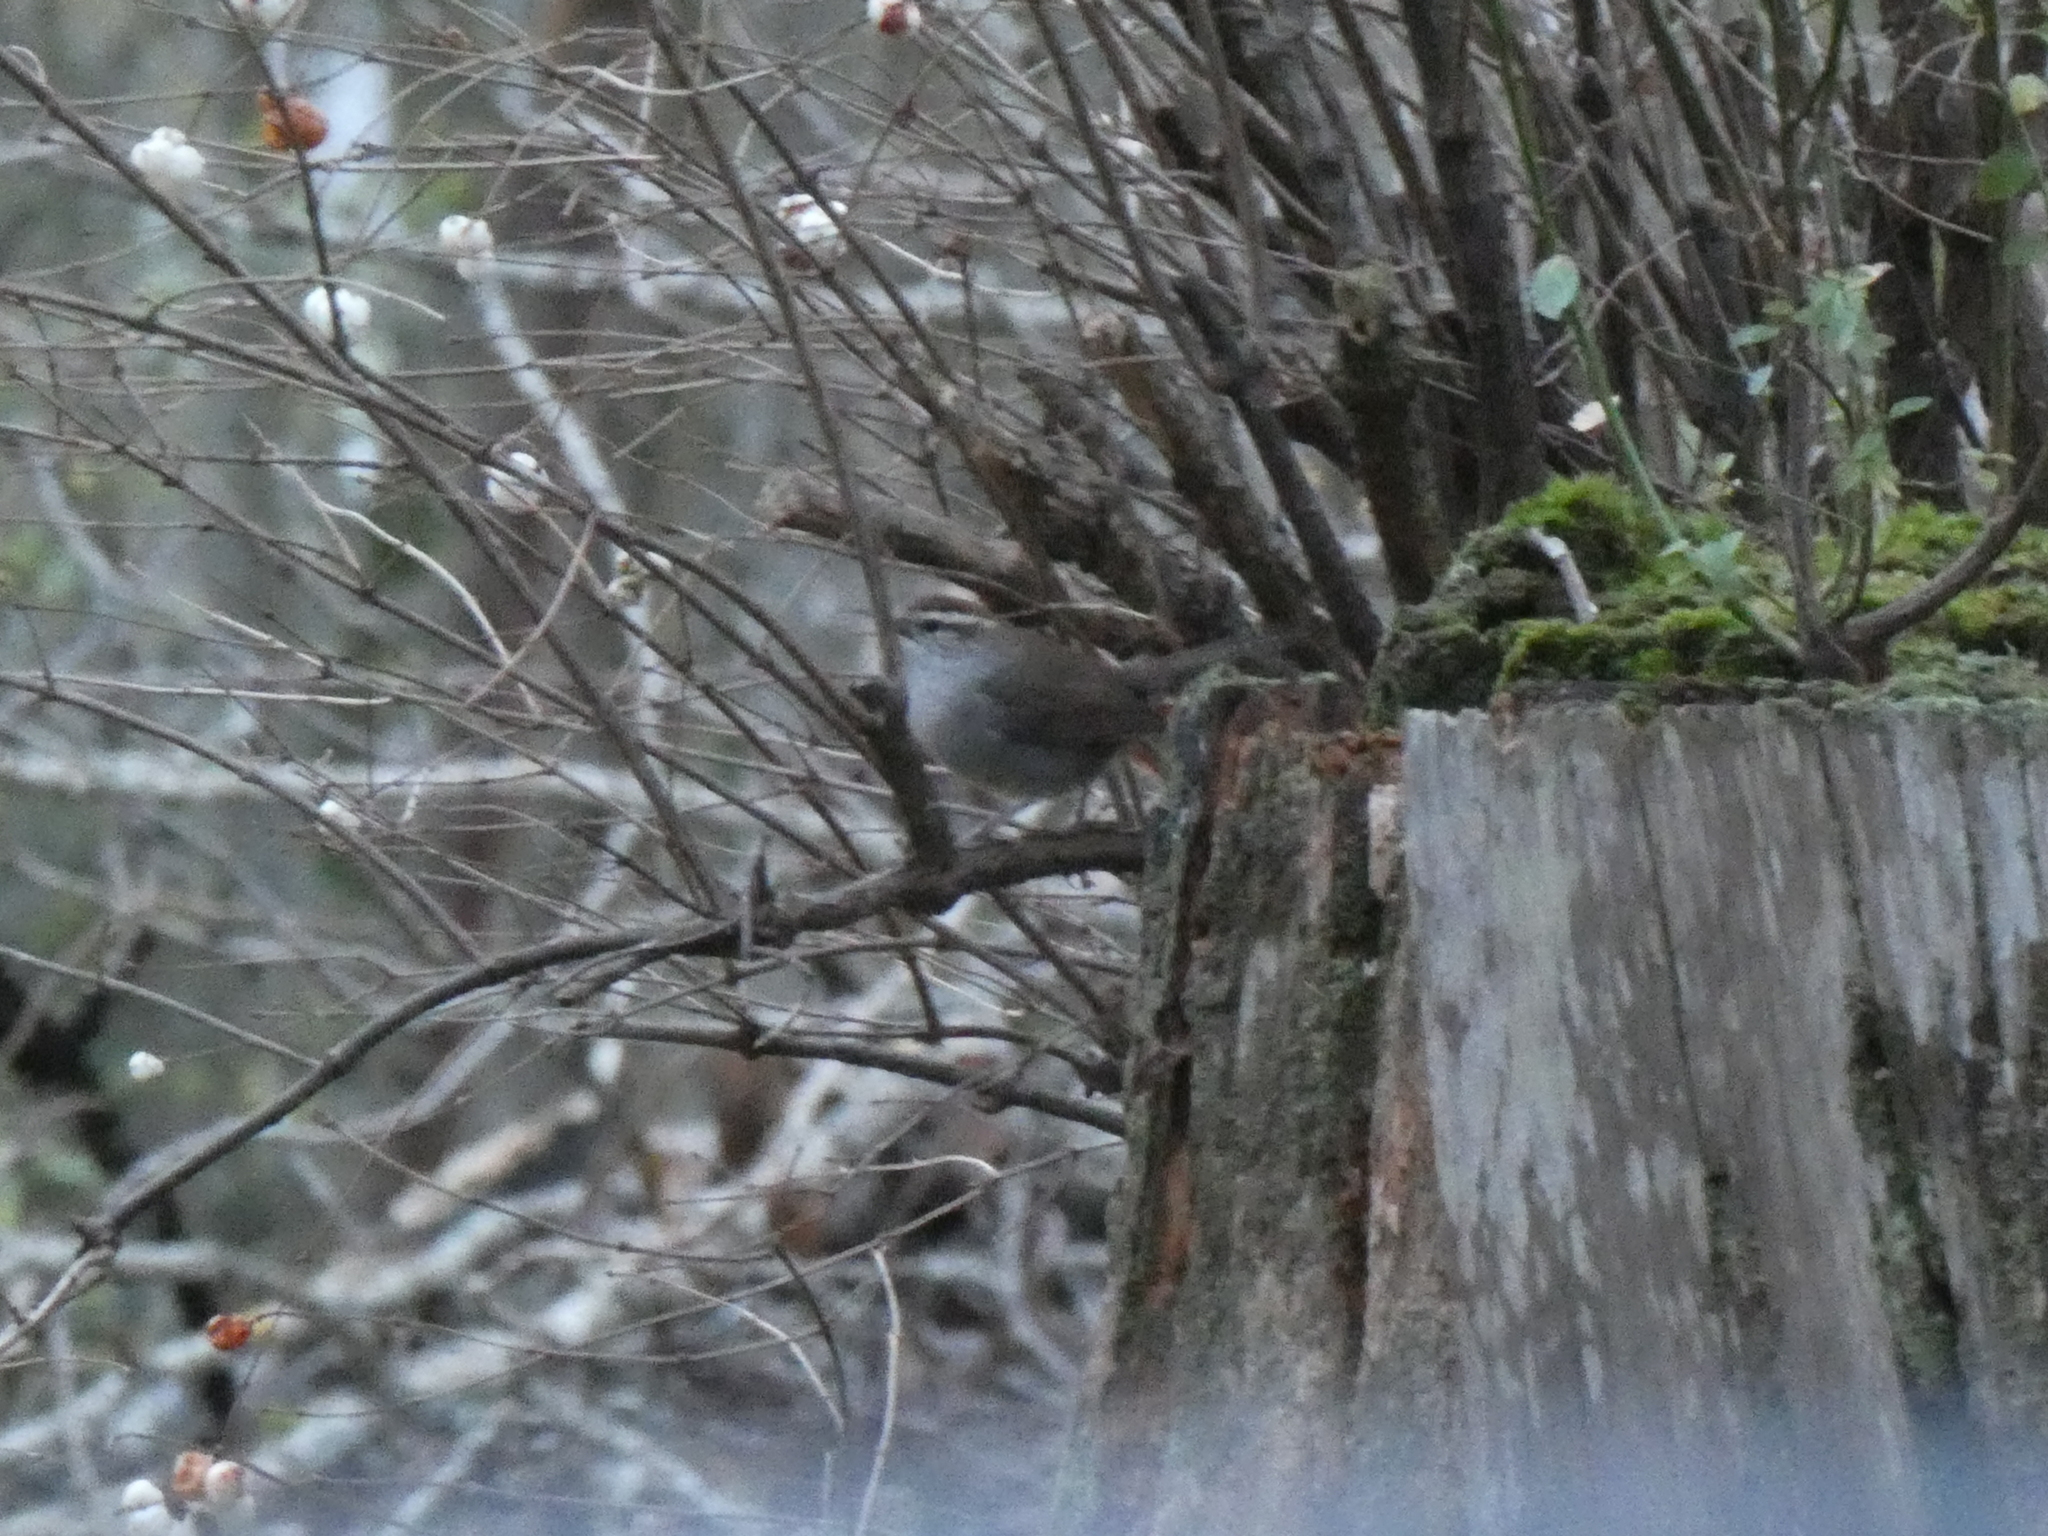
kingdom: Animalia
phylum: Chordata
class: Aves
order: Passeriformes
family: Troglodytidae
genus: Thryomanes
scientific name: Thryomanes bewickii
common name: Bewick's wren
